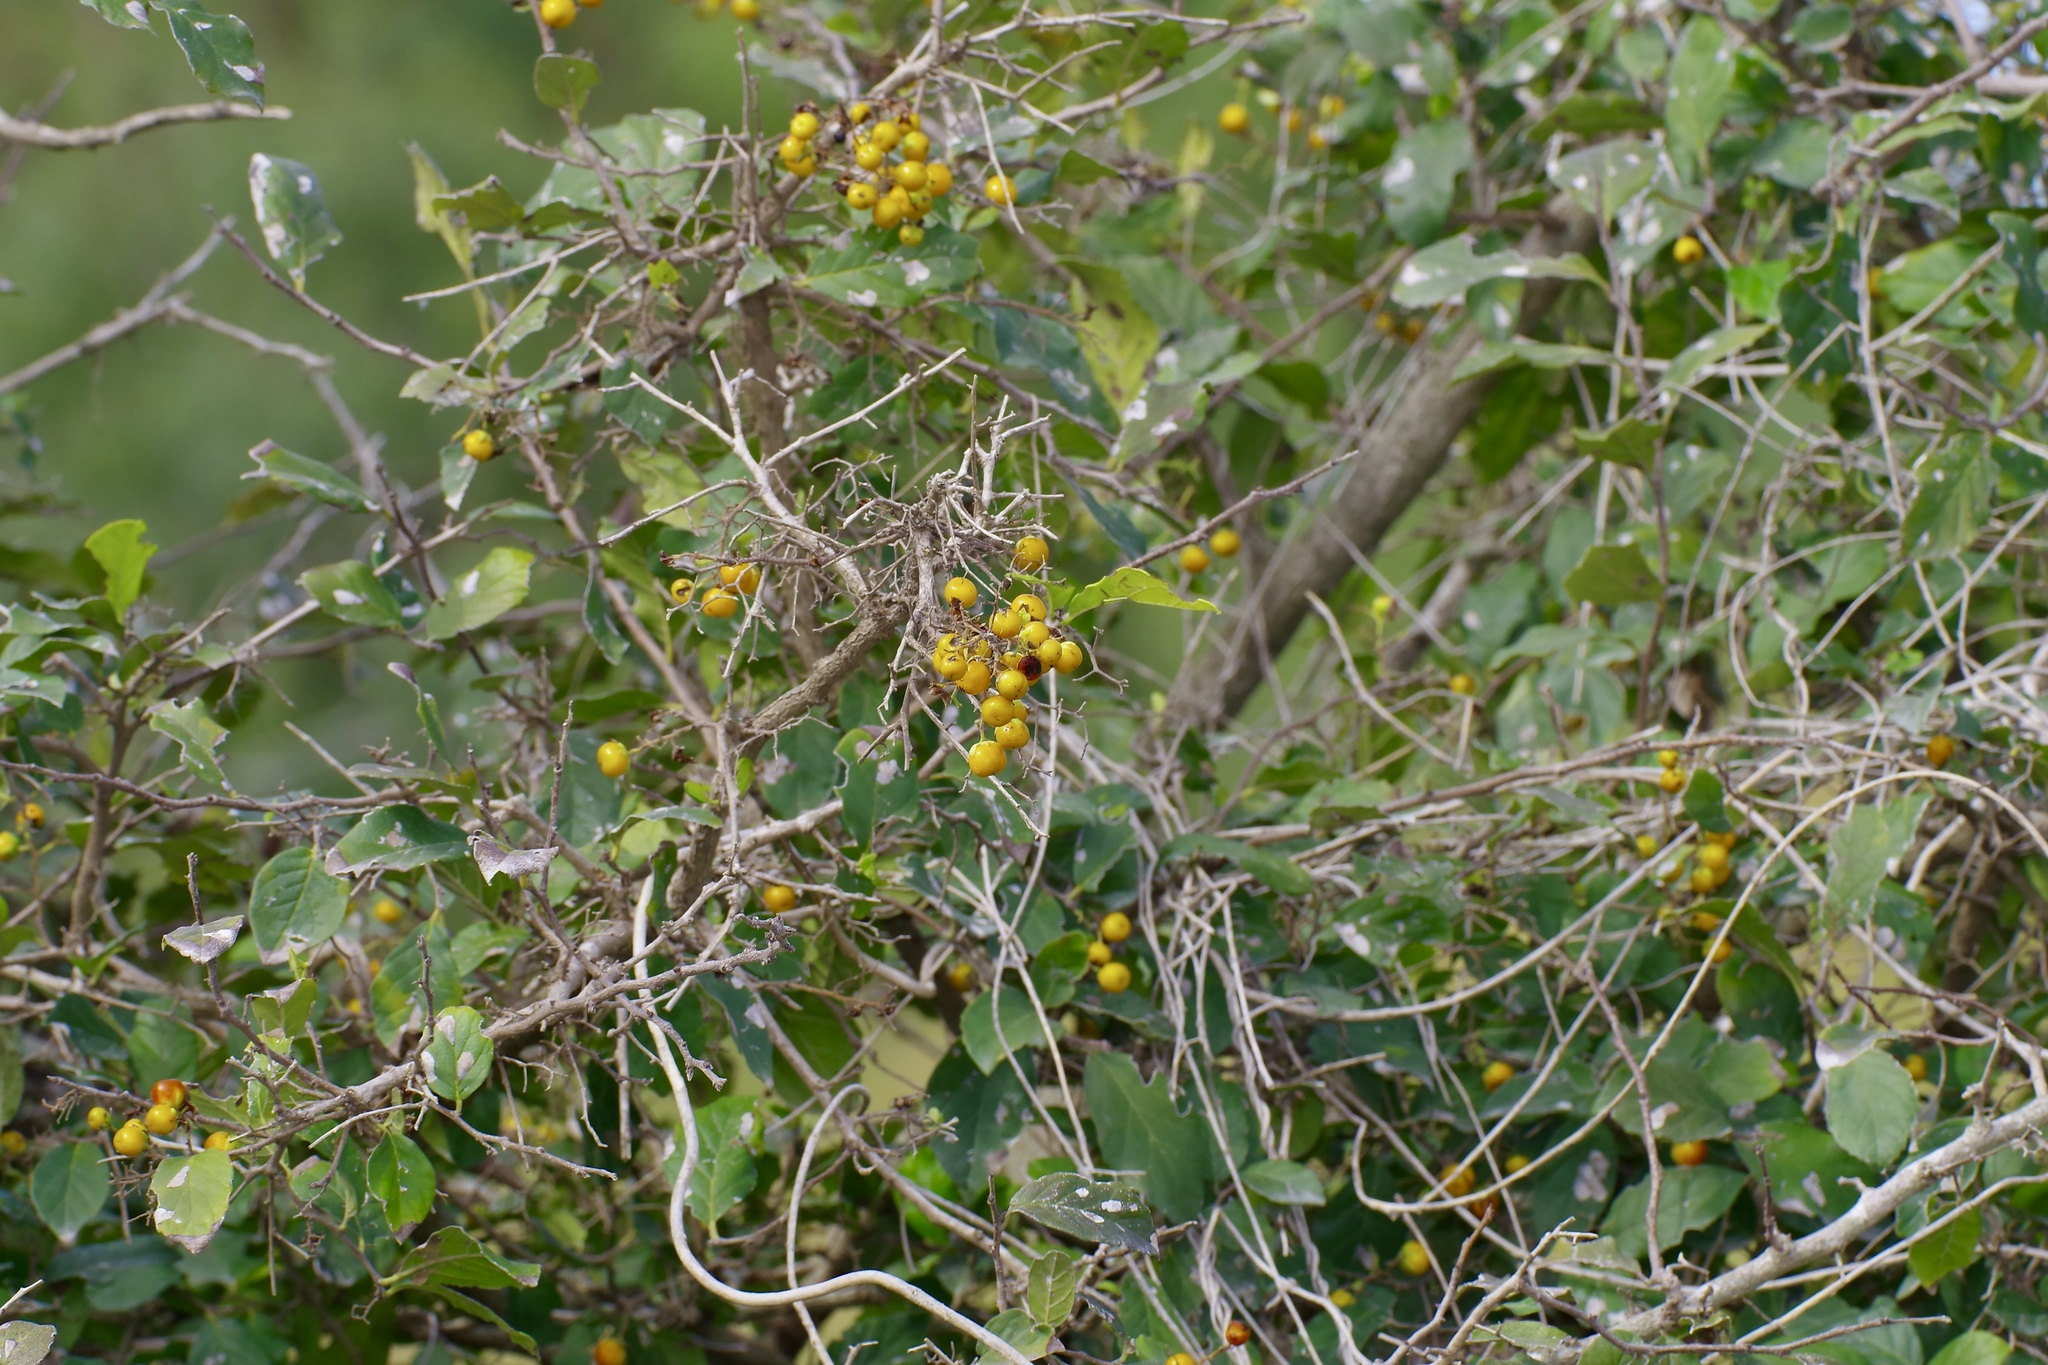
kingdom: Plantae
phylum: Tracheophyta
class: Magnoliopsida
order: Boraginales
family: Ehretiaceae
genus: Ehretia
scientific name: Ehretia anacua
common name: Sugarberry
